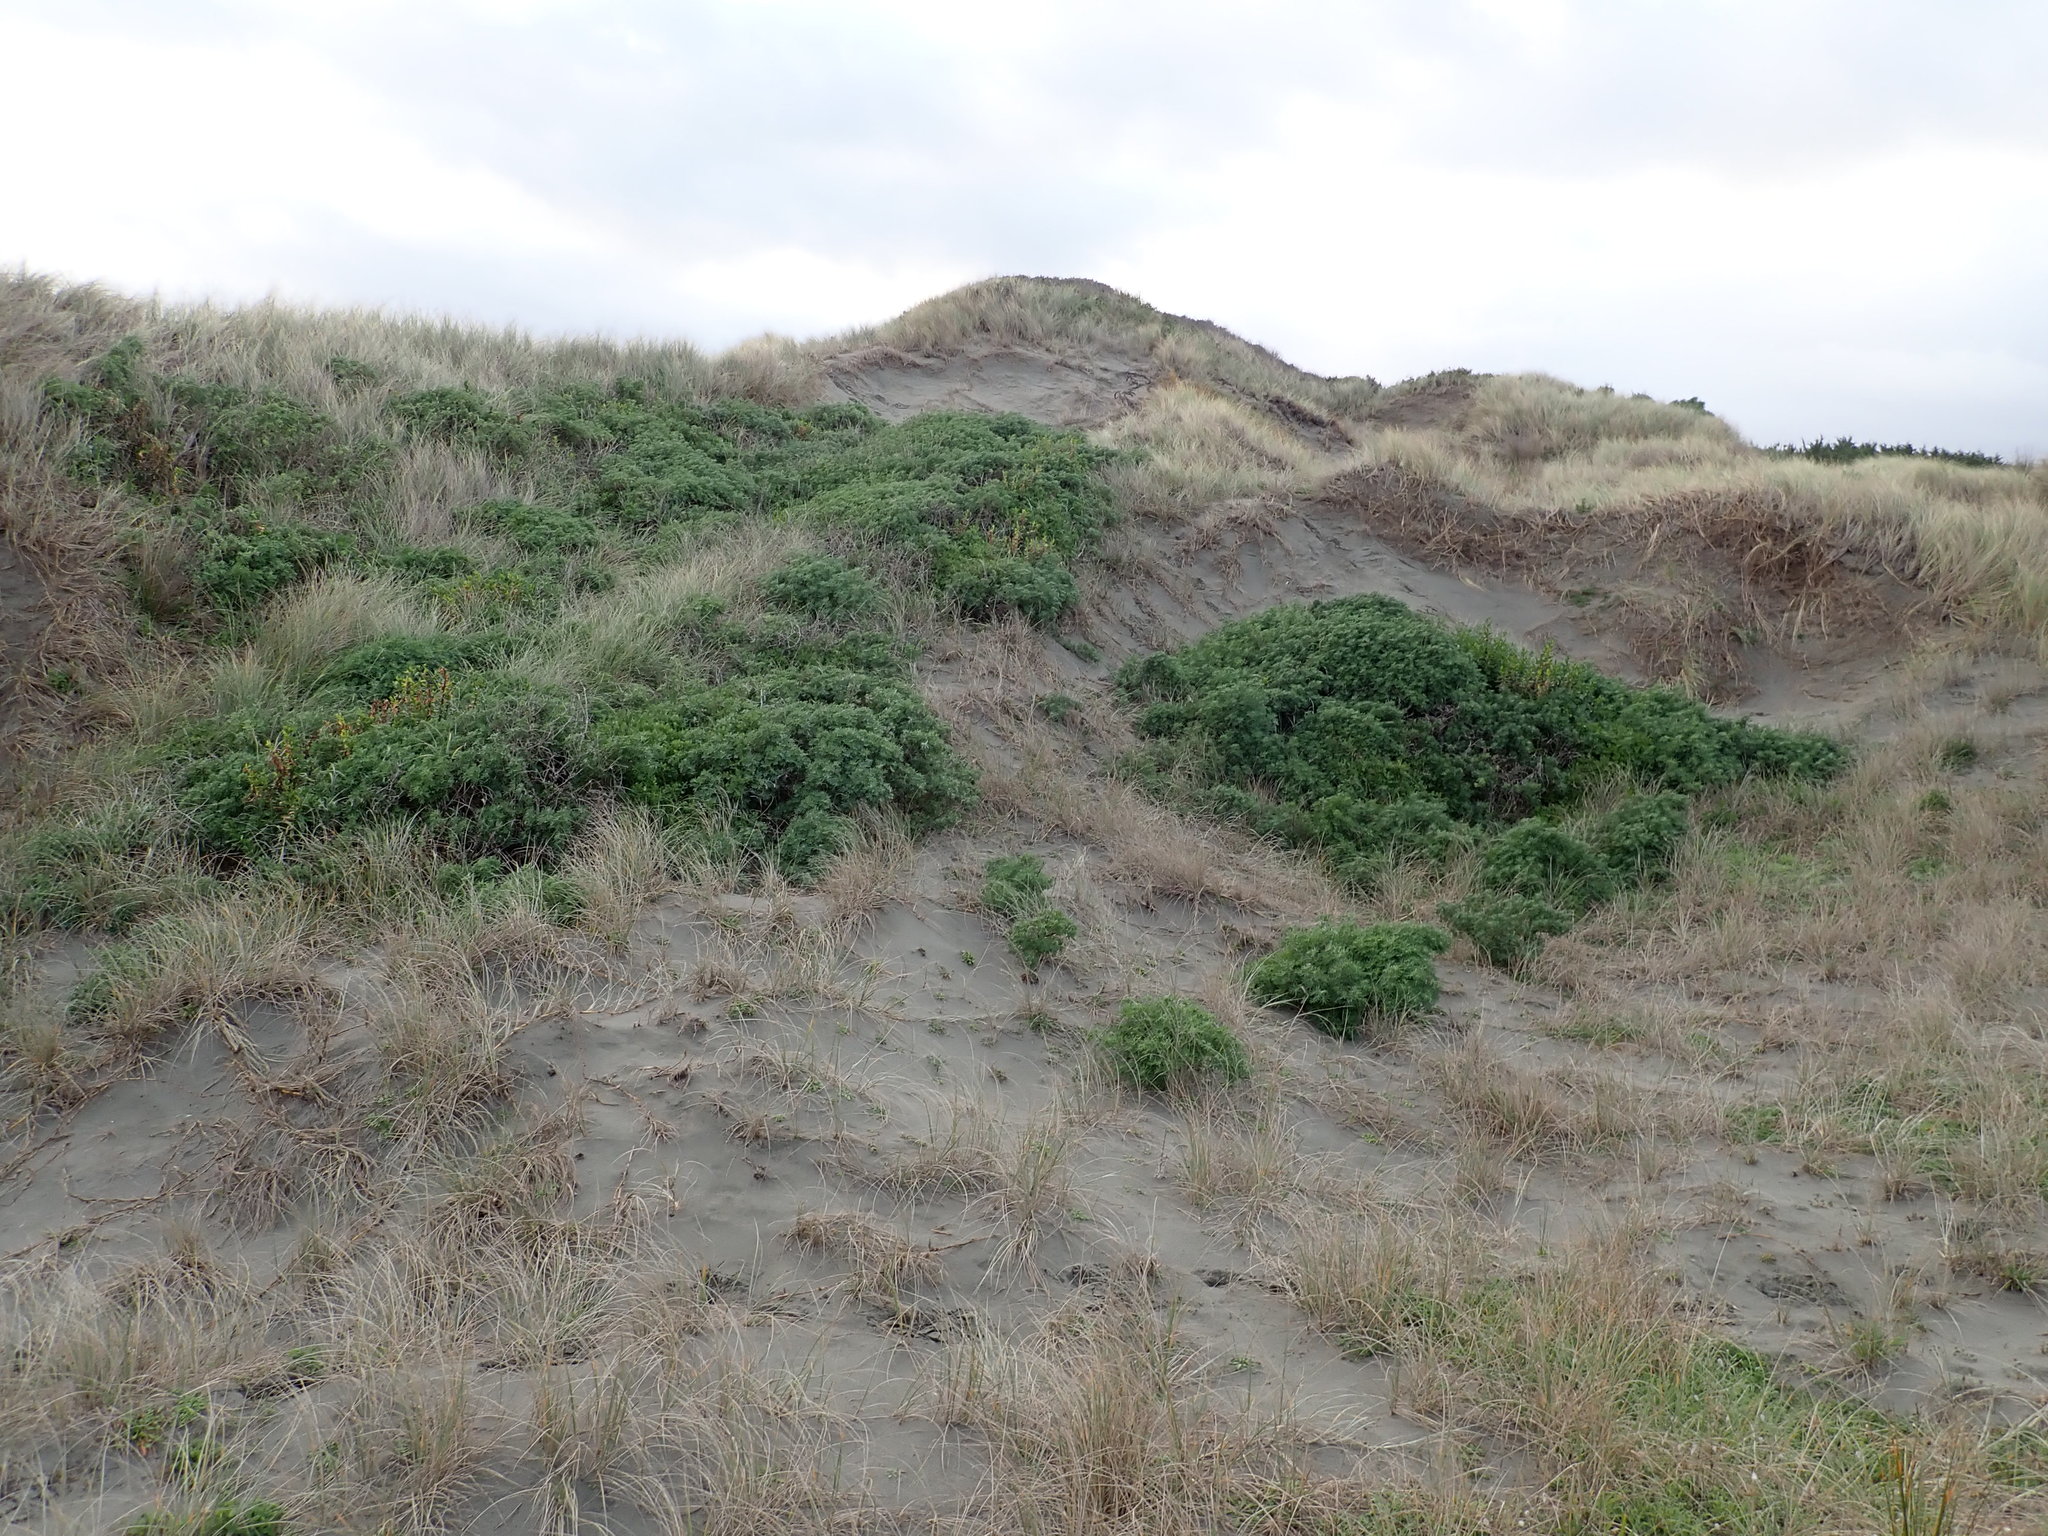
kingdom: Plantae
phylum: Tracheophyta
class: Magnoliopsida
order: Asterales
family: Asteraceae
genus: Senecio
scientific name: Senecio glastifolius
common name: Woad-leaved ragwort
